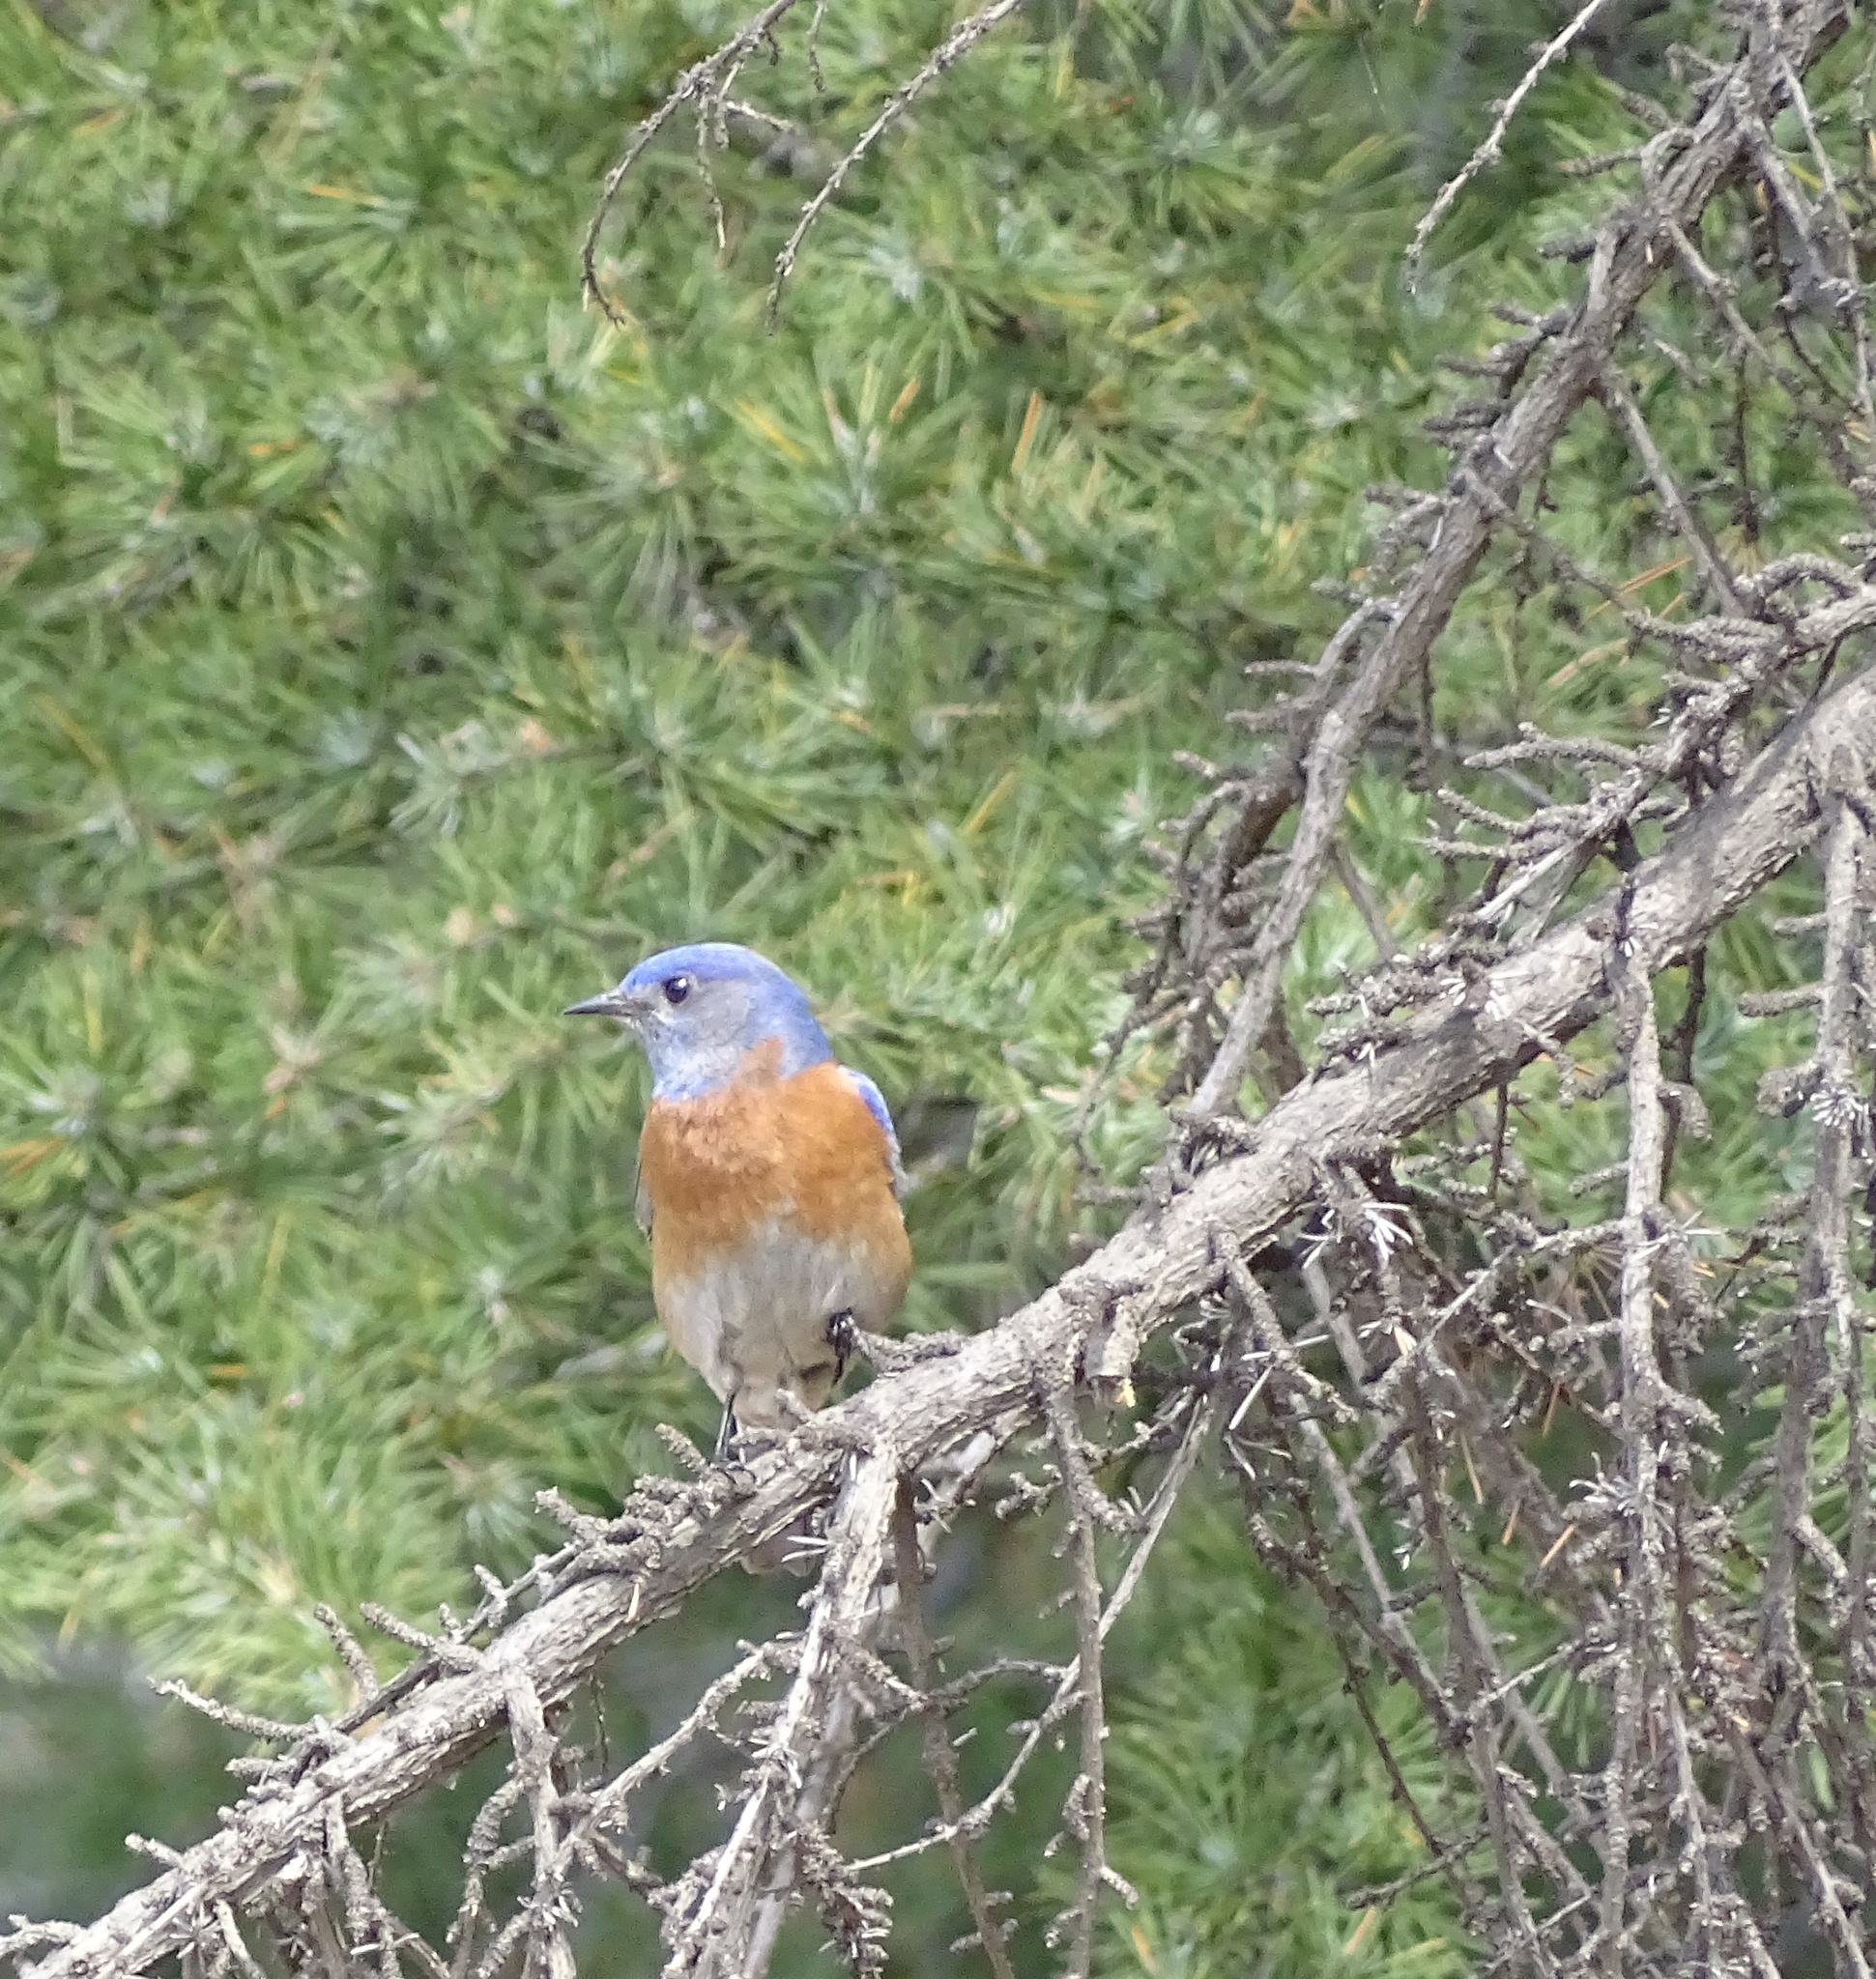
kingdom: Animalia
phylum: Chordata
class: Aves
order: Passeriformes
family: Turdidae
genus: Sialia
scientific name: Sialia mexicana
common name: Western bluebird
